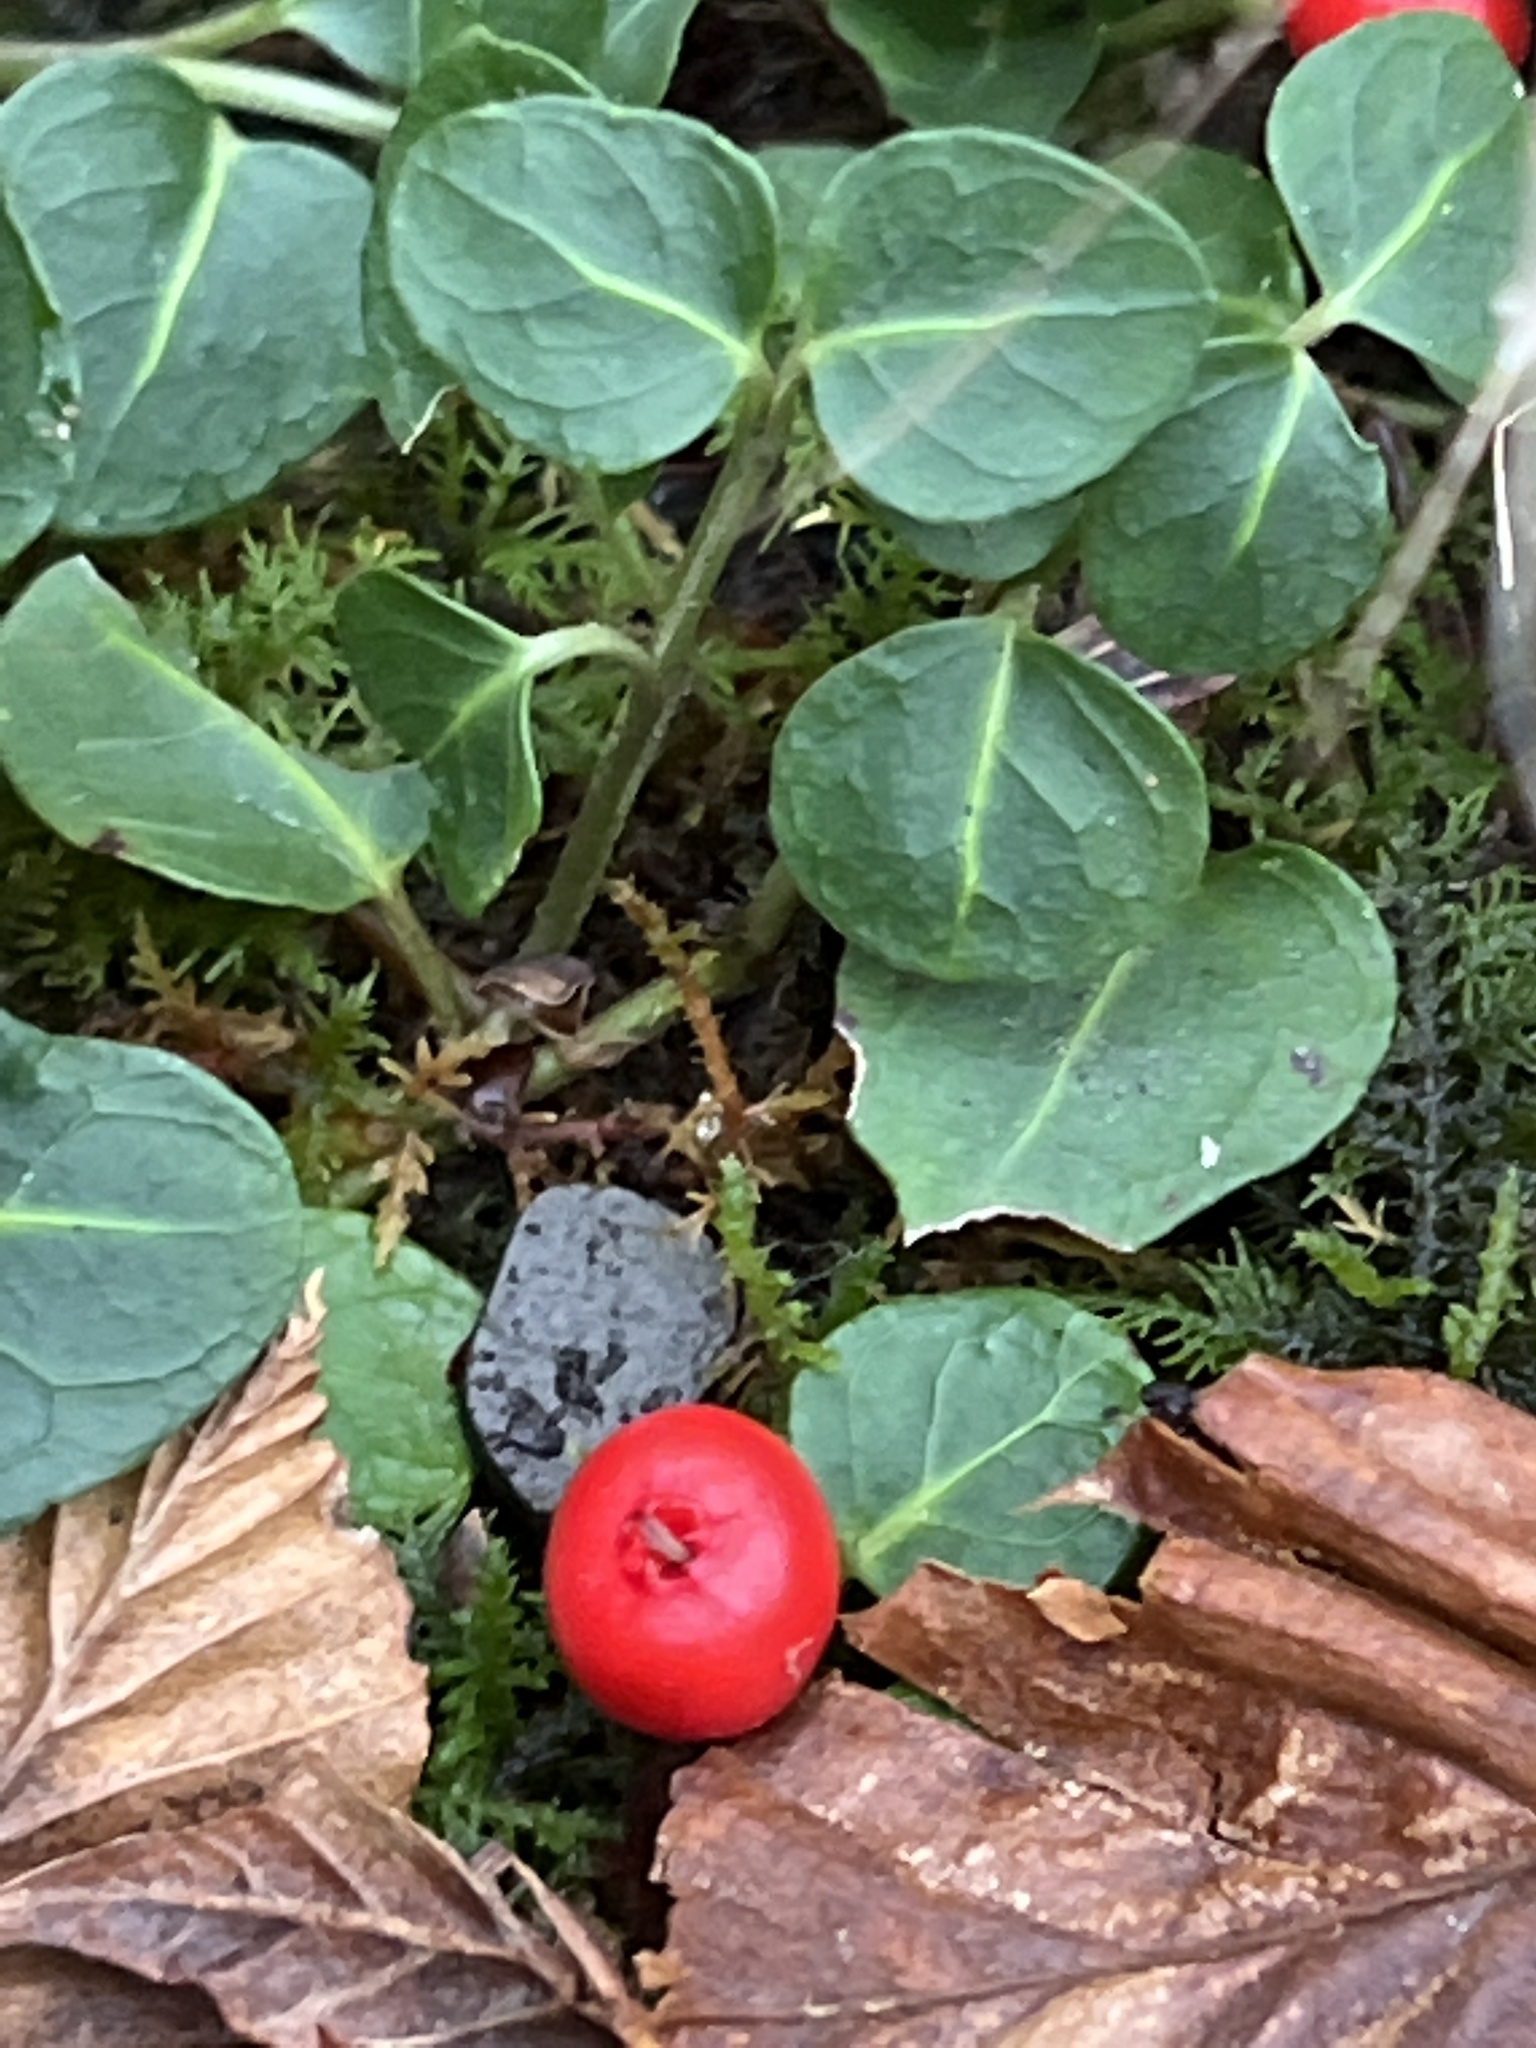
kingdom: Plantae
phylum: Tracheophyta
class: Magnoliopsida
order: Gentianales
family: Rubiaceae
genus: Mitchella
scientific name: Mitchella repens
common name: Partridge-berry
